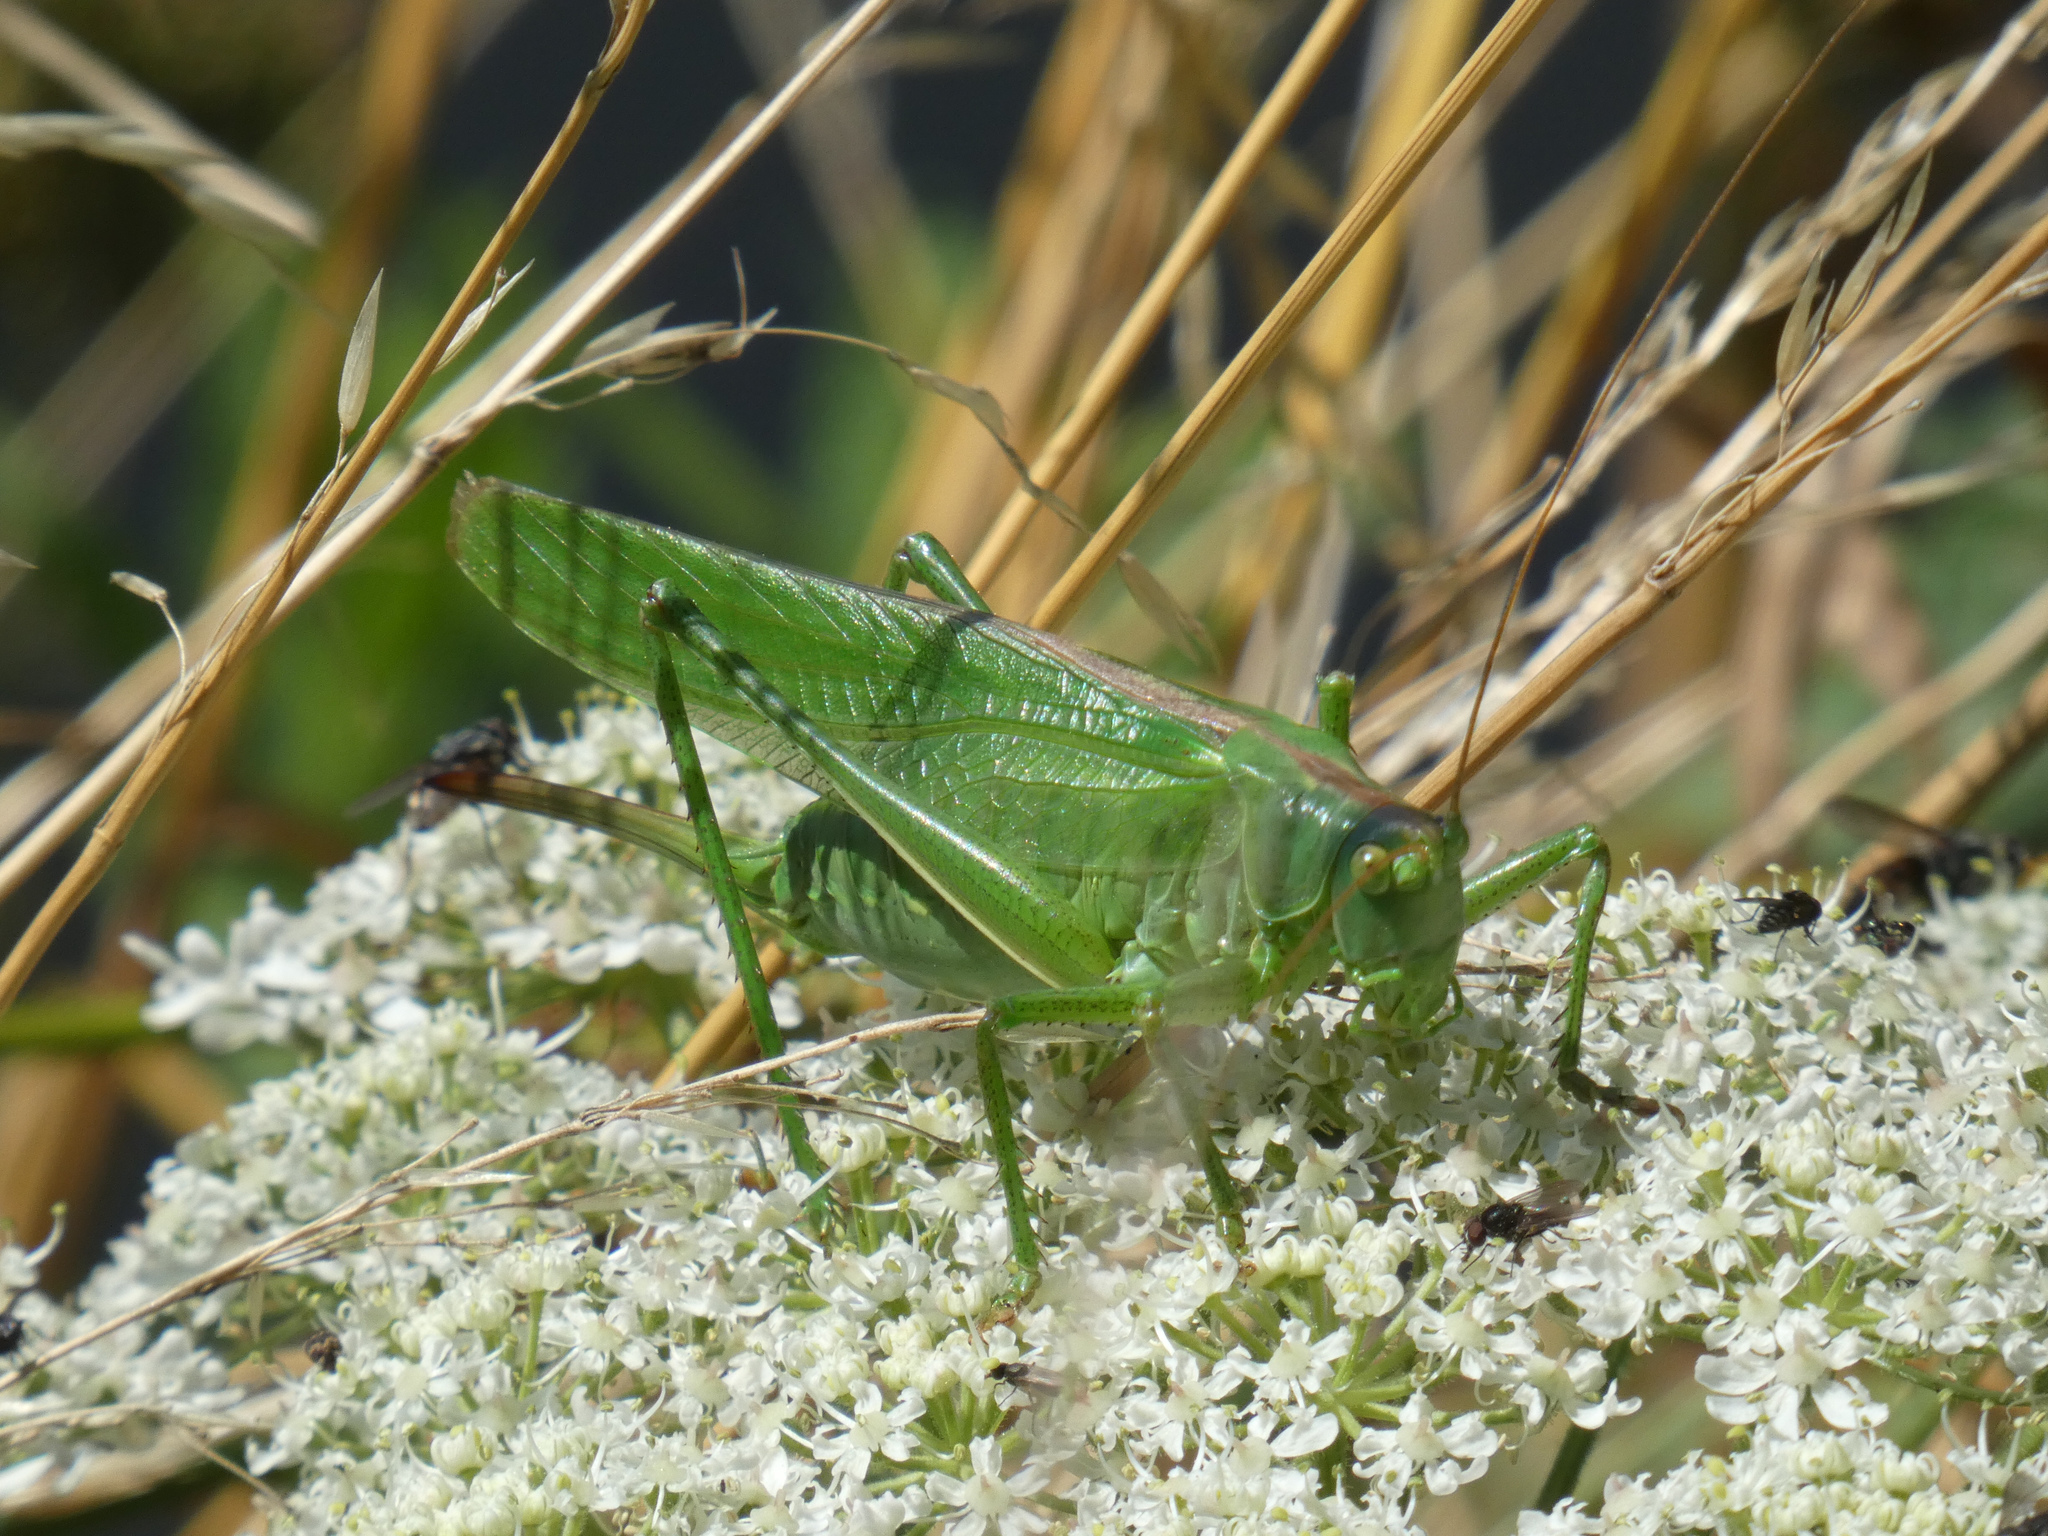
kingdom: Animalia
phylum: Arthropoda
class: Insecta
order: Orthoptera
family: Tettigoniidae
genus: Tettigonia
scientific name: Tettigonia viridissima
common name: Great green bush-cricket
